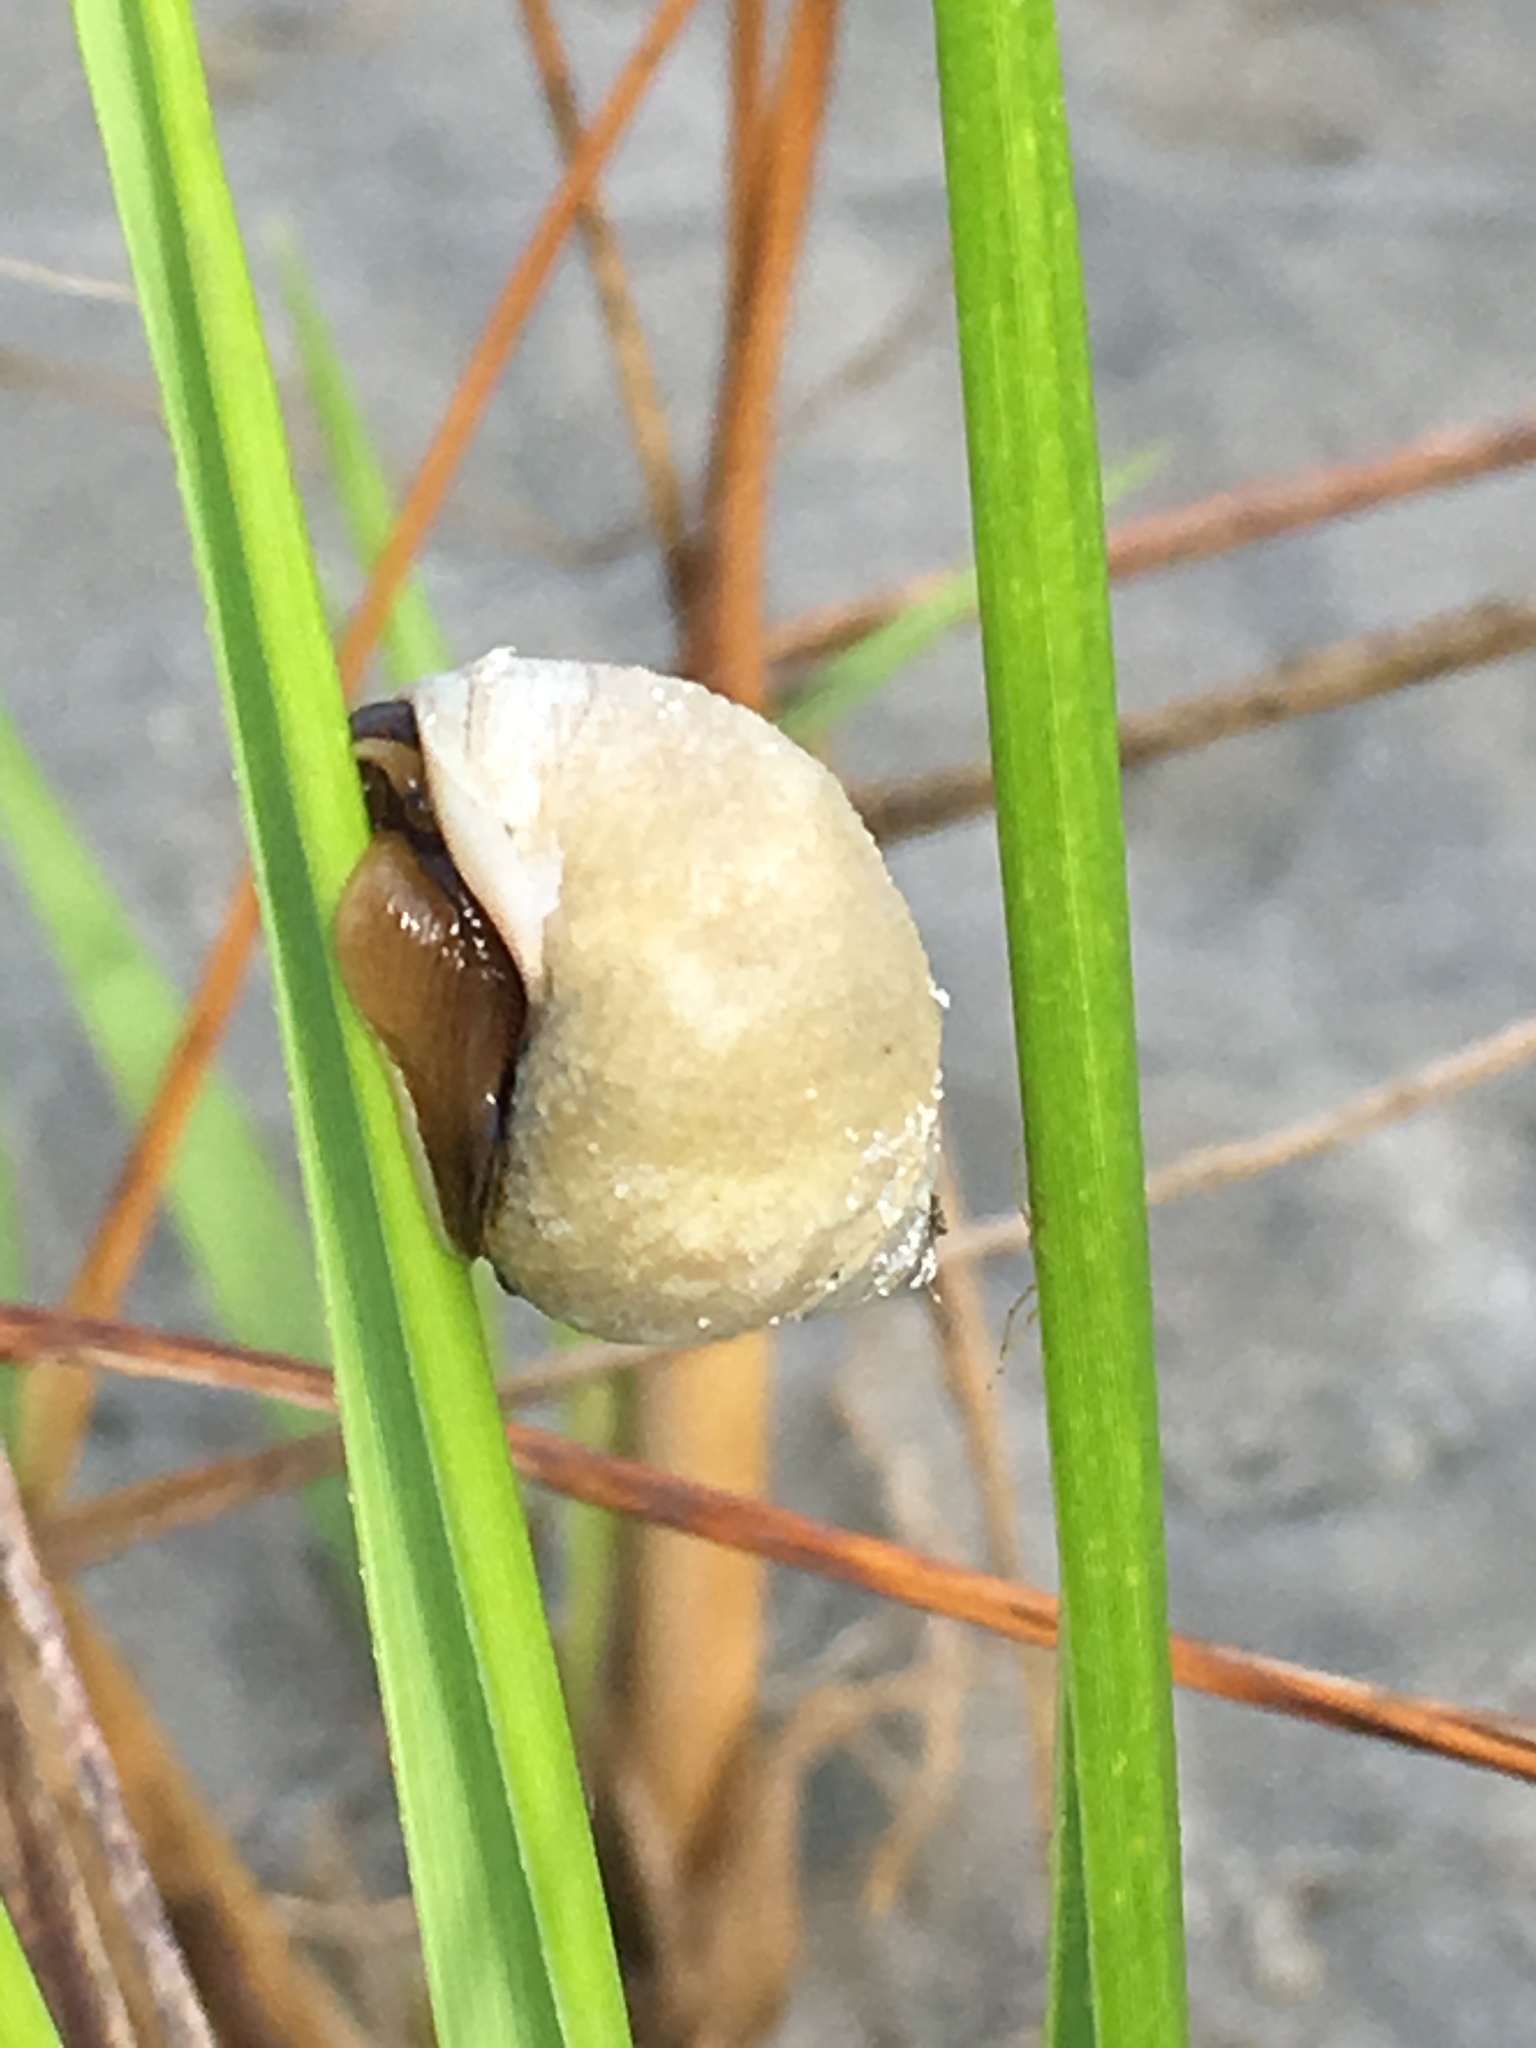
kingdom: Animalia
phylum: Mollusca
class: Gastropoda
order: Littorinimorpha
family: Littorinidae
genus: Littoraria
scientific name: Littoraria irrorata
